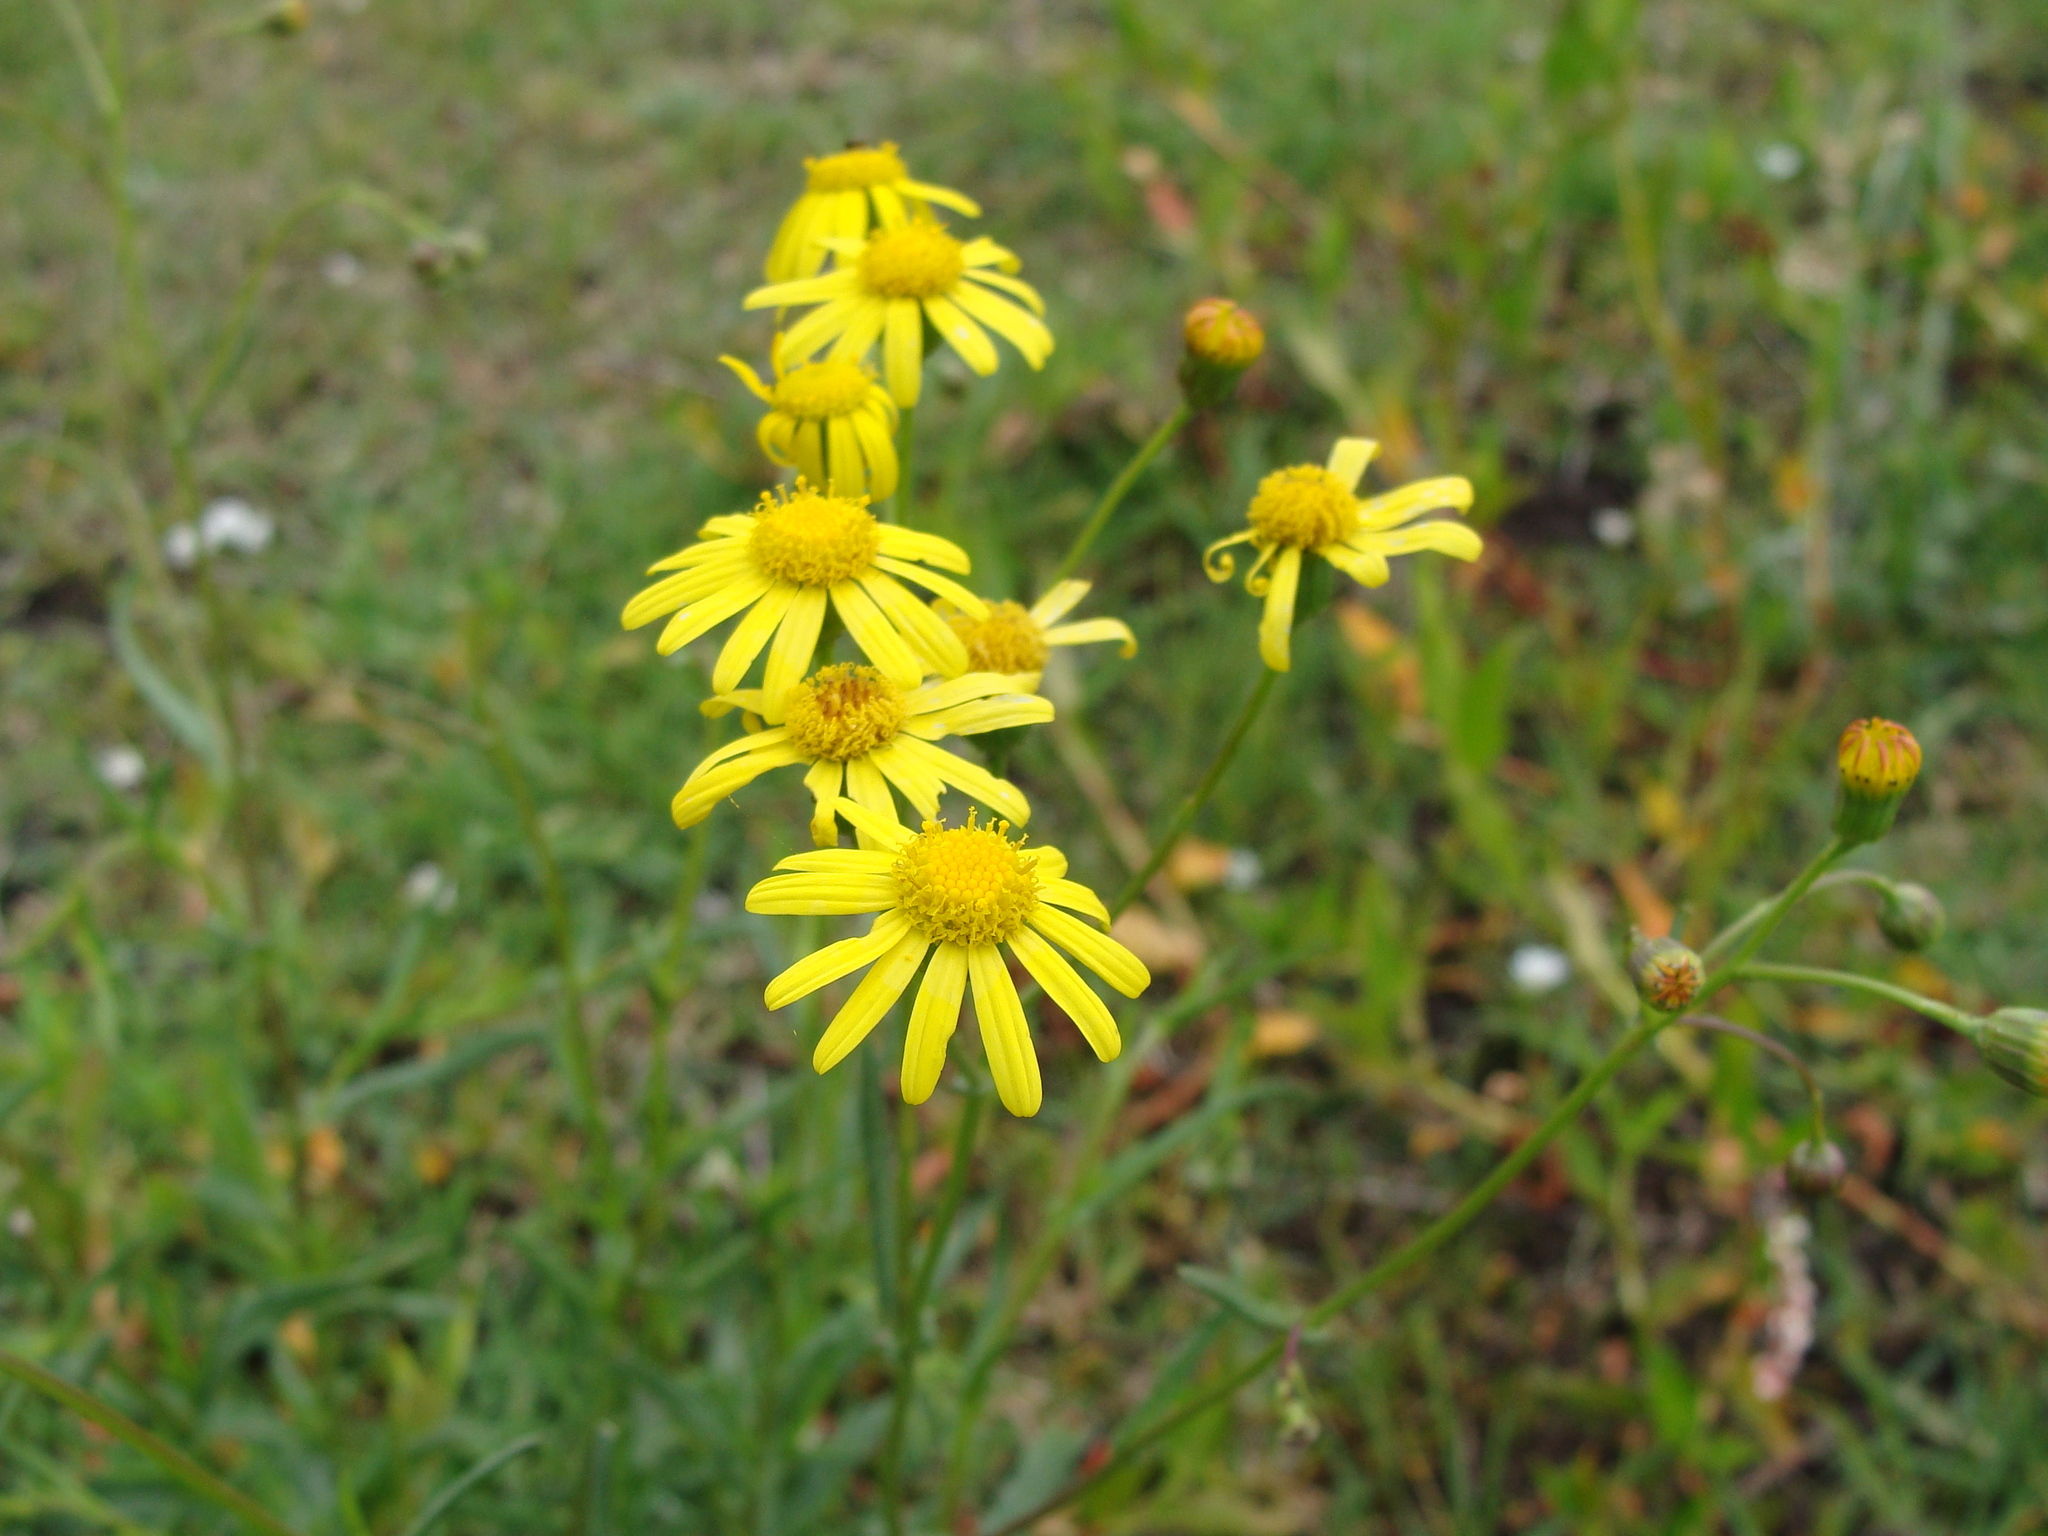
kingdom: Plantae
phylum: Tracheophyta
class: Magnoliopsida
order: Asterales
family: Asteraceae
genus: Senecio
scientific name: Senecio inaequidens
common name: Narrow-leaved ragwort
